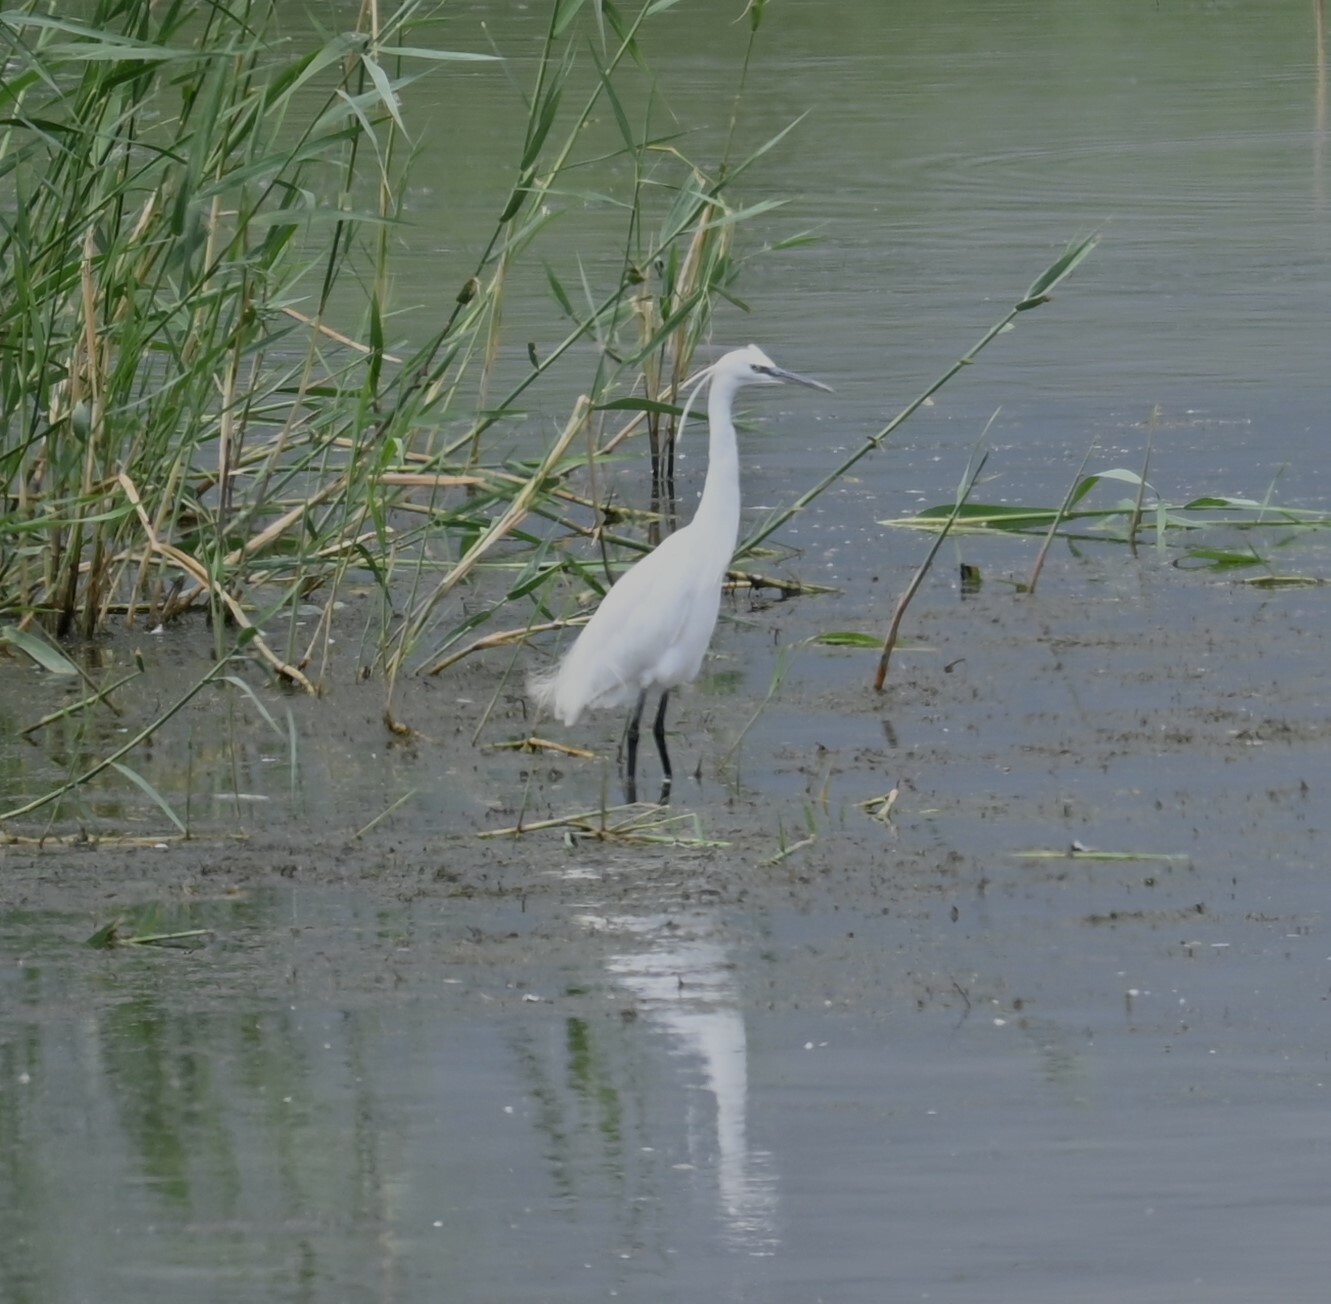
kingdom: Animalia
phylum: Chordata
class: Aves
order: Pelecaniformes
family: Ardeidae
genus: Egretta
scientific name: Egretta garzetta
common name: Little egret
